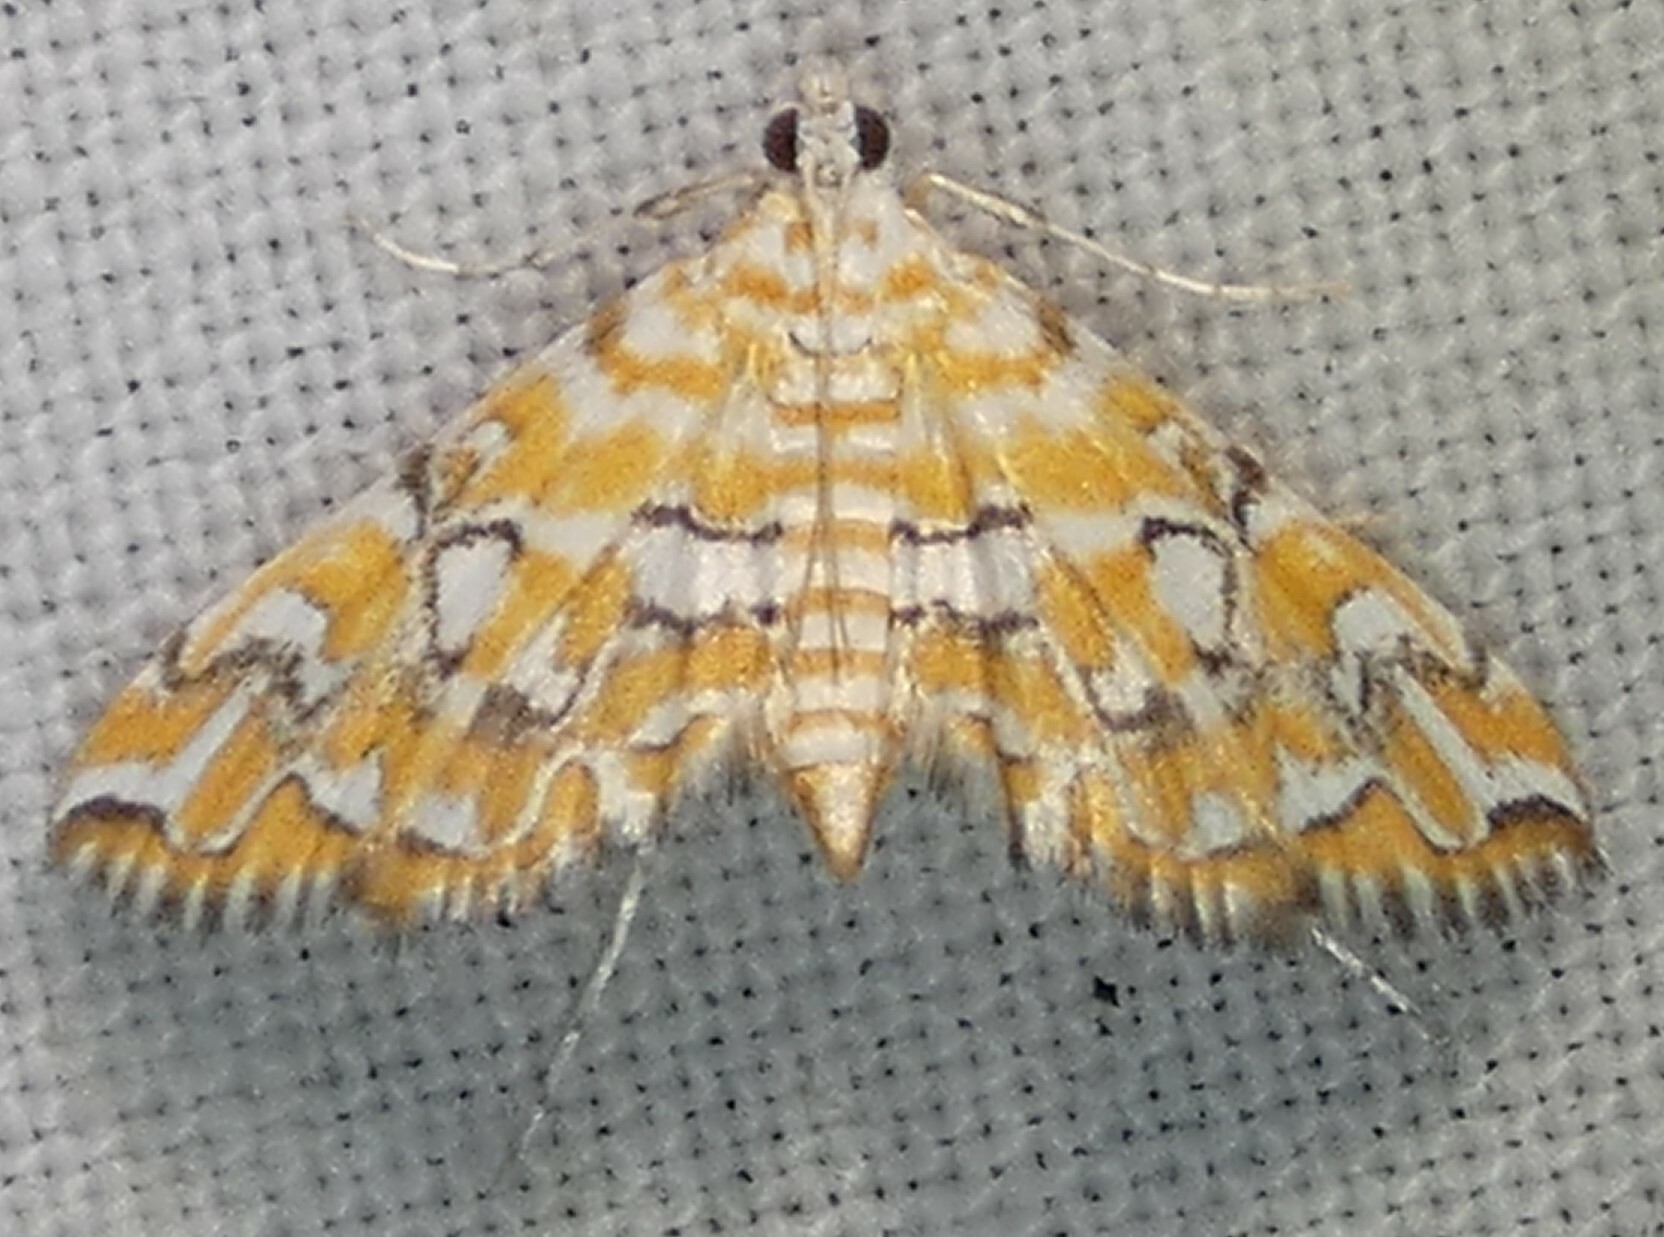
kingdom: Animalia
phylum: Arthropoda
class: Insecta
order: Lepidoptera
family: Crambidae
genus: Elophila
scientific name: Elophila icciusalis
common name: Pondside pyralid moth
